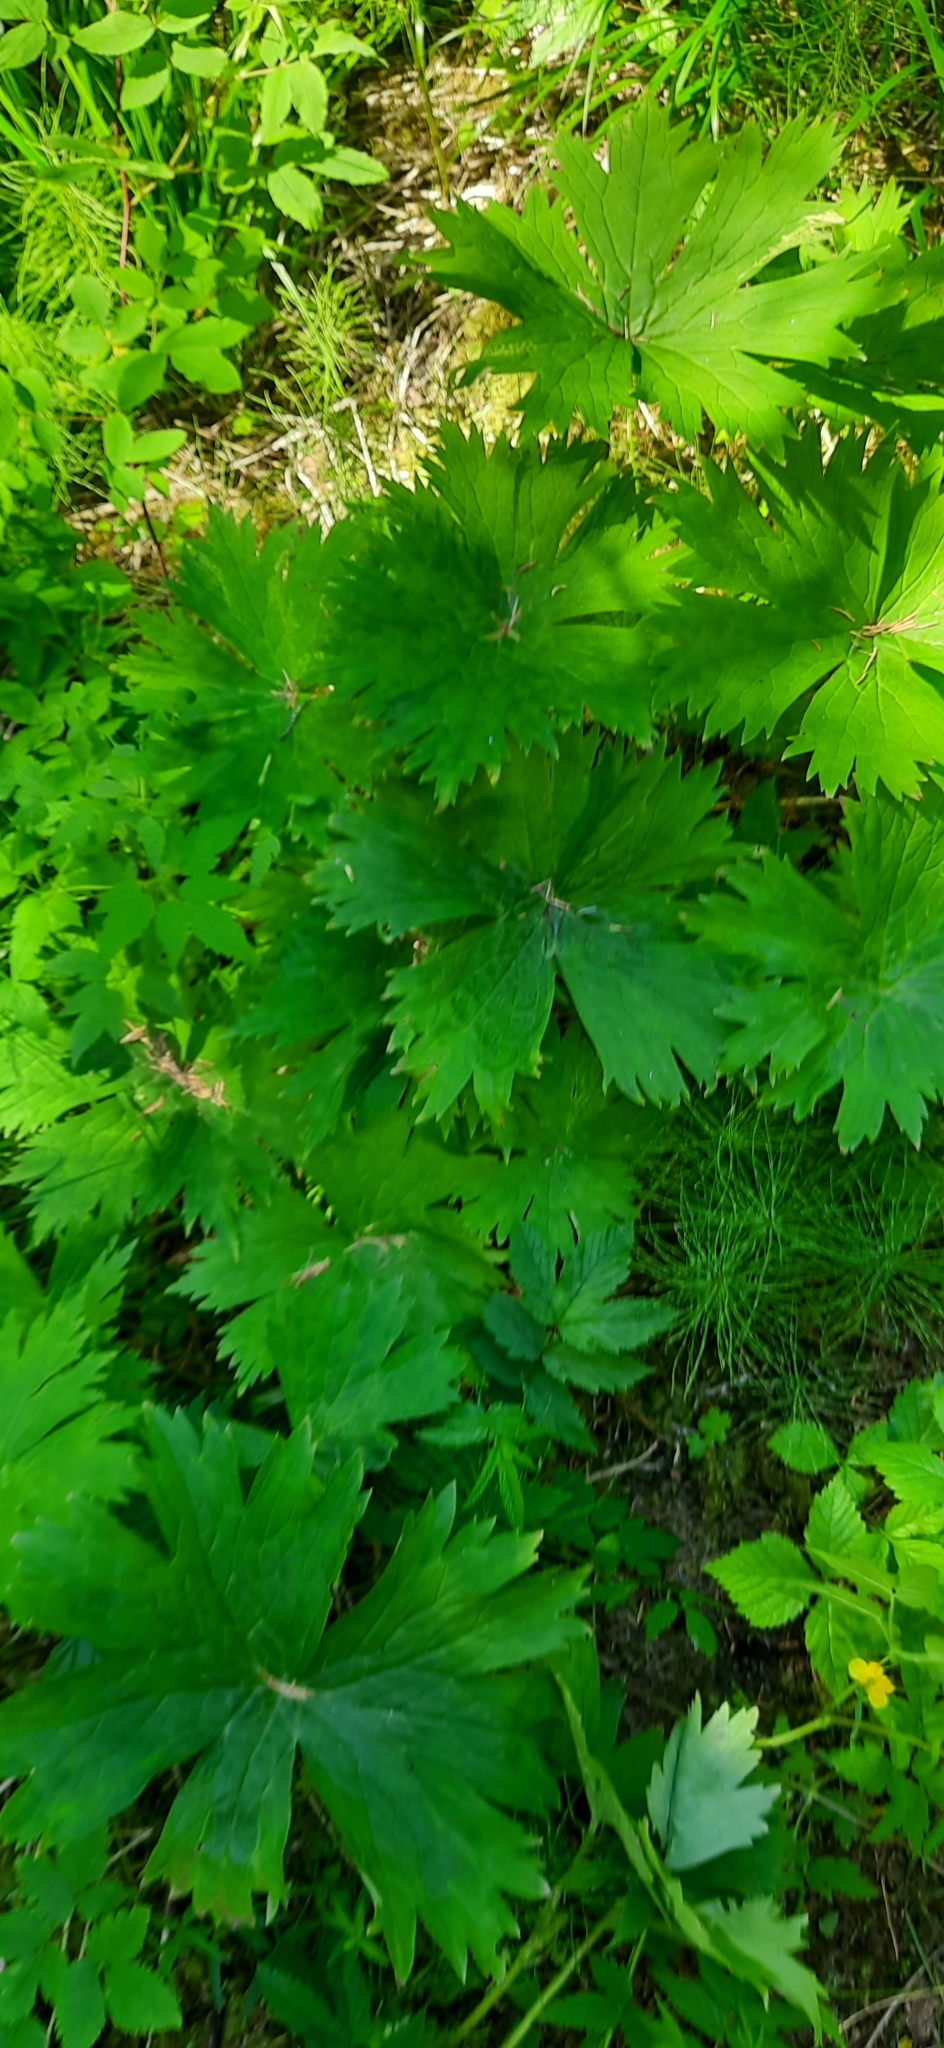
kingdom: Plantae
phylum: Tracheophyta
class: Magnoliopsida
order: Ranunculales
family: Ranunculaceae
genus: Aconitum
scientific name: Aconitum septentrionale
